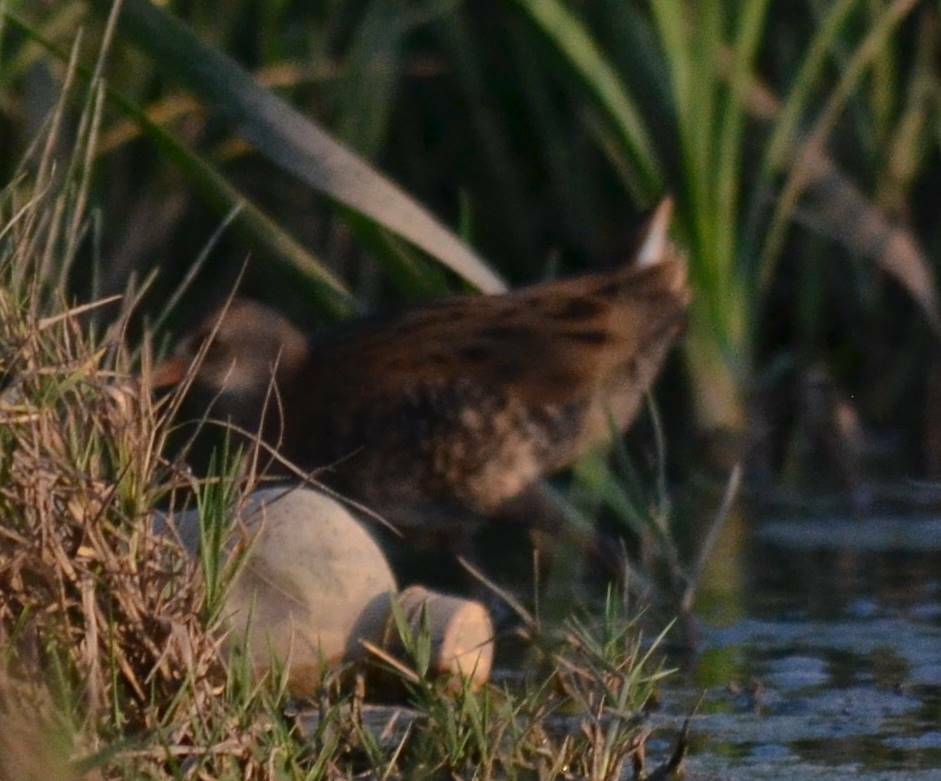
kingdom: Animalia
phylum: Chordata
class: Aves
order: Gruiformes
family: Rallidae
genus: Rallus
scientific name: Rallus aquaticus
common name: Water rail
